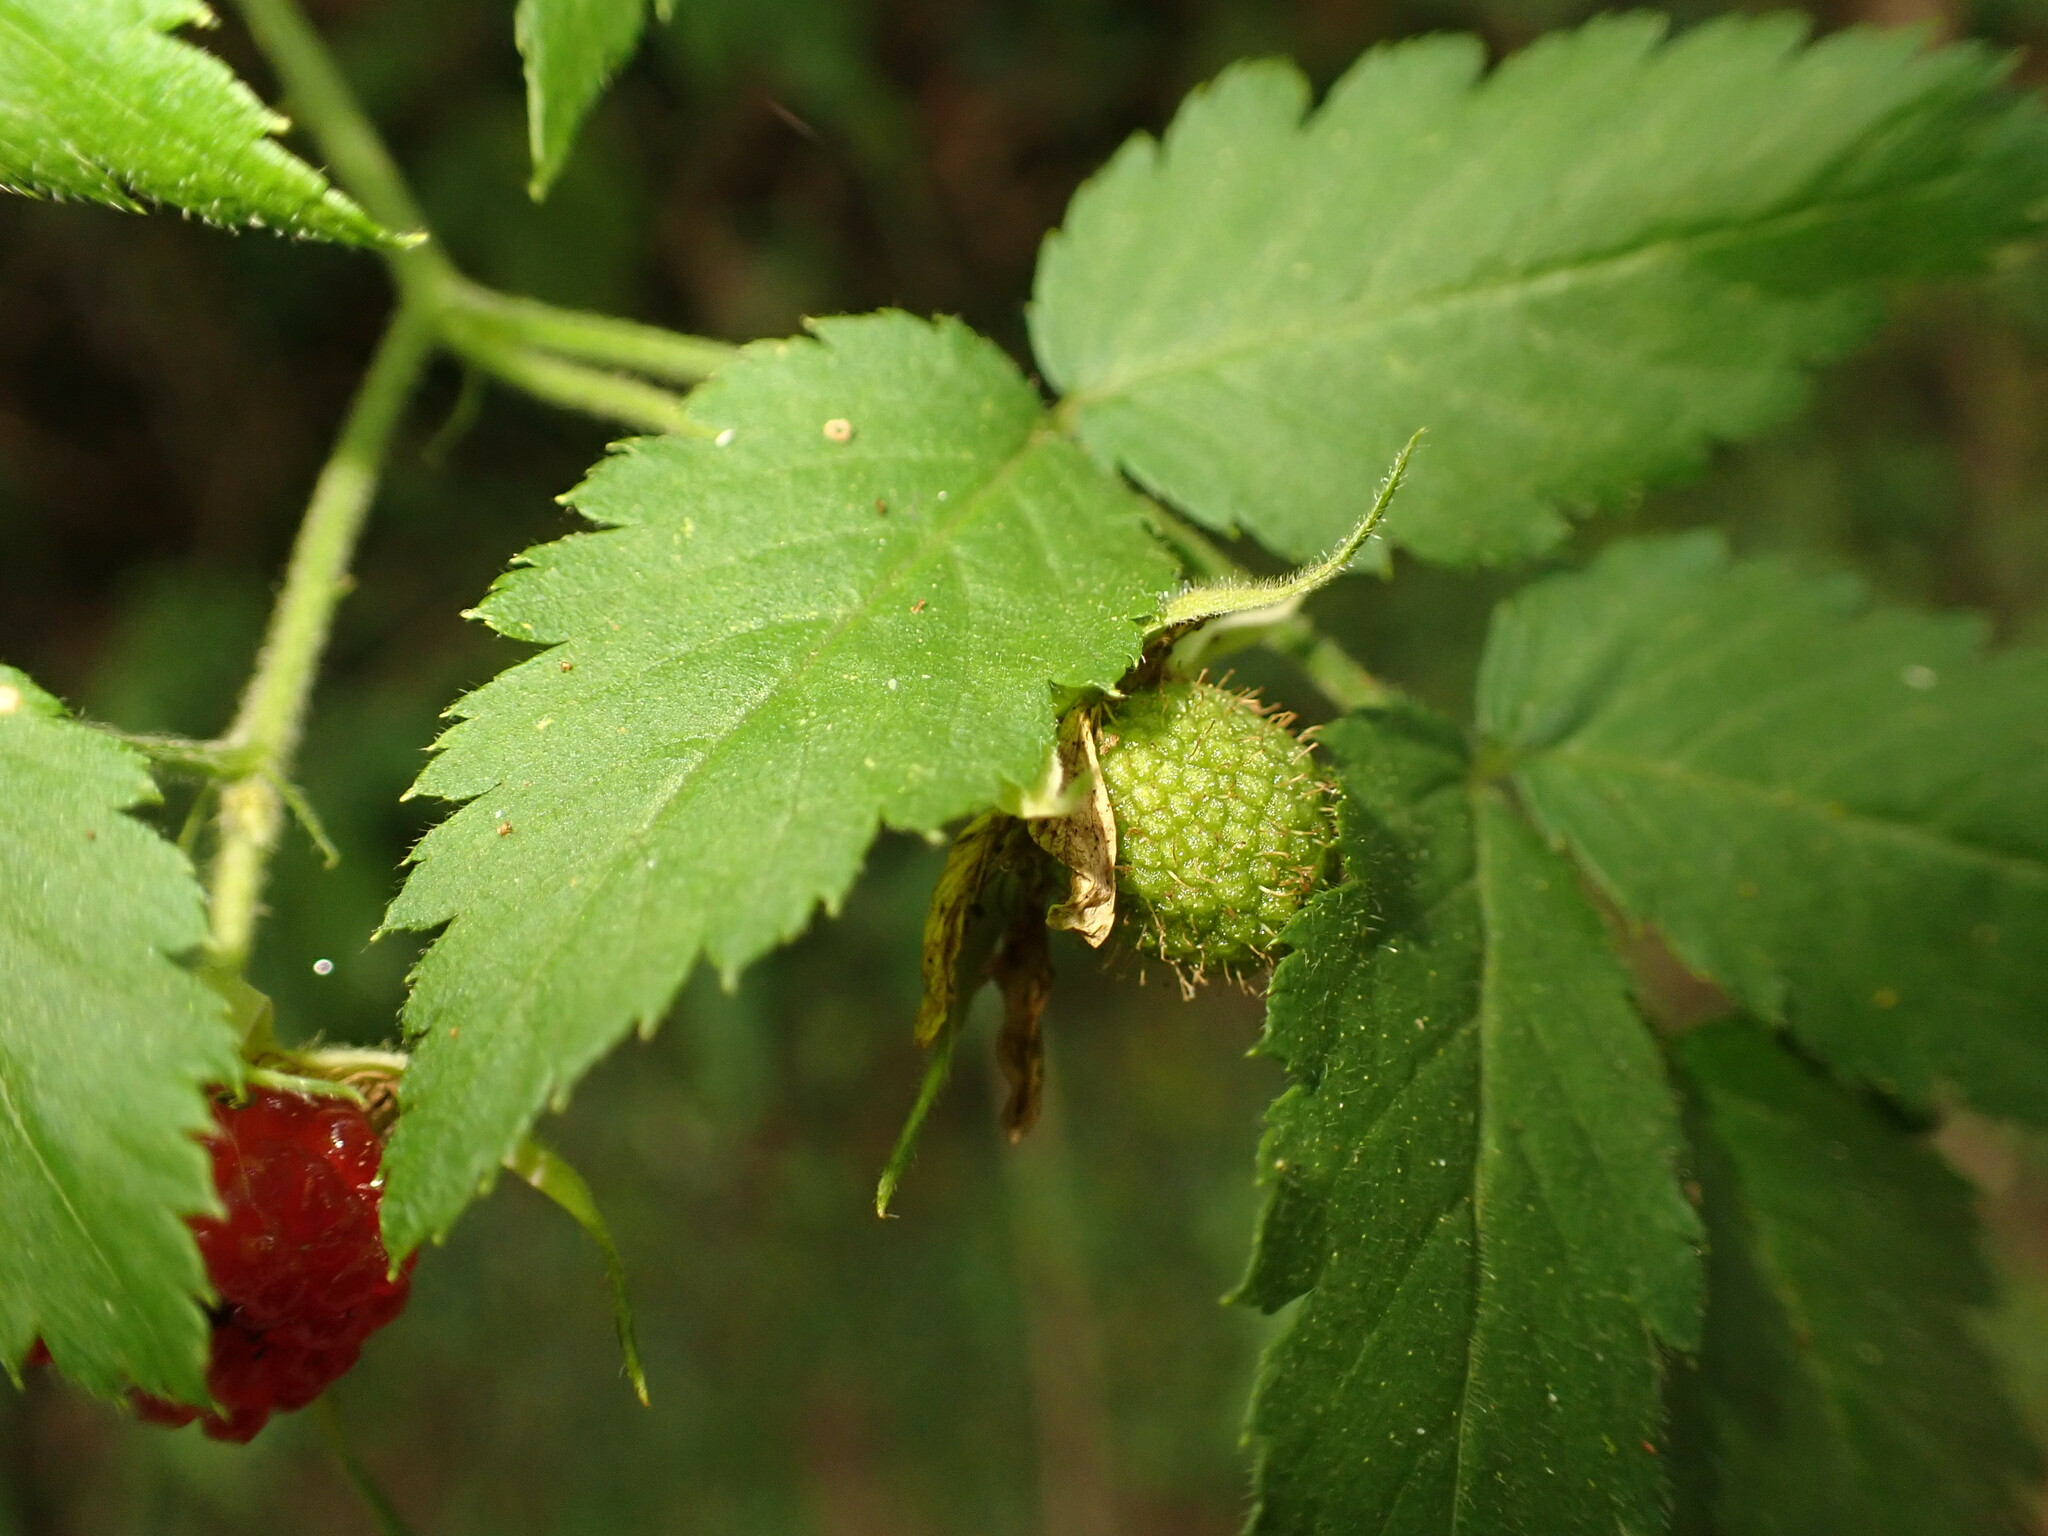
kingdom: Plantae
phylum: Tracheophyta
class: Magnoliopsida
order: Rosales
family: Rosaceae
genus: Rubus
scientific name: Rubus rosifolius
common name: Roseleaf raspberry
